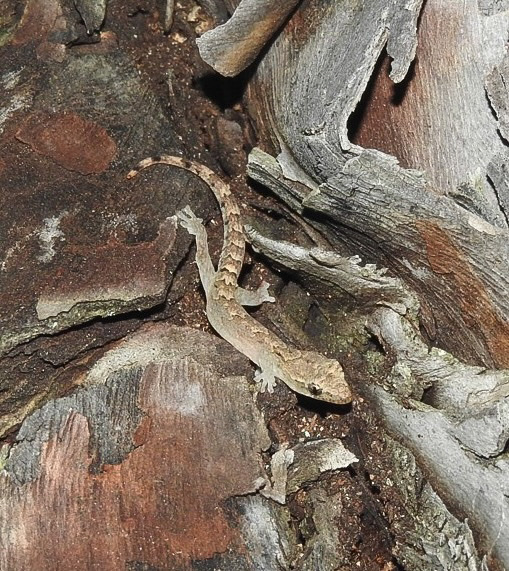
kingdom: Animalia
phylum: Chordata
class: Squamata
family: Gekkonidae
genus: Lepidodactylus
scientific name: Lepidodactylus lugubris
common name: Mourning gecko
